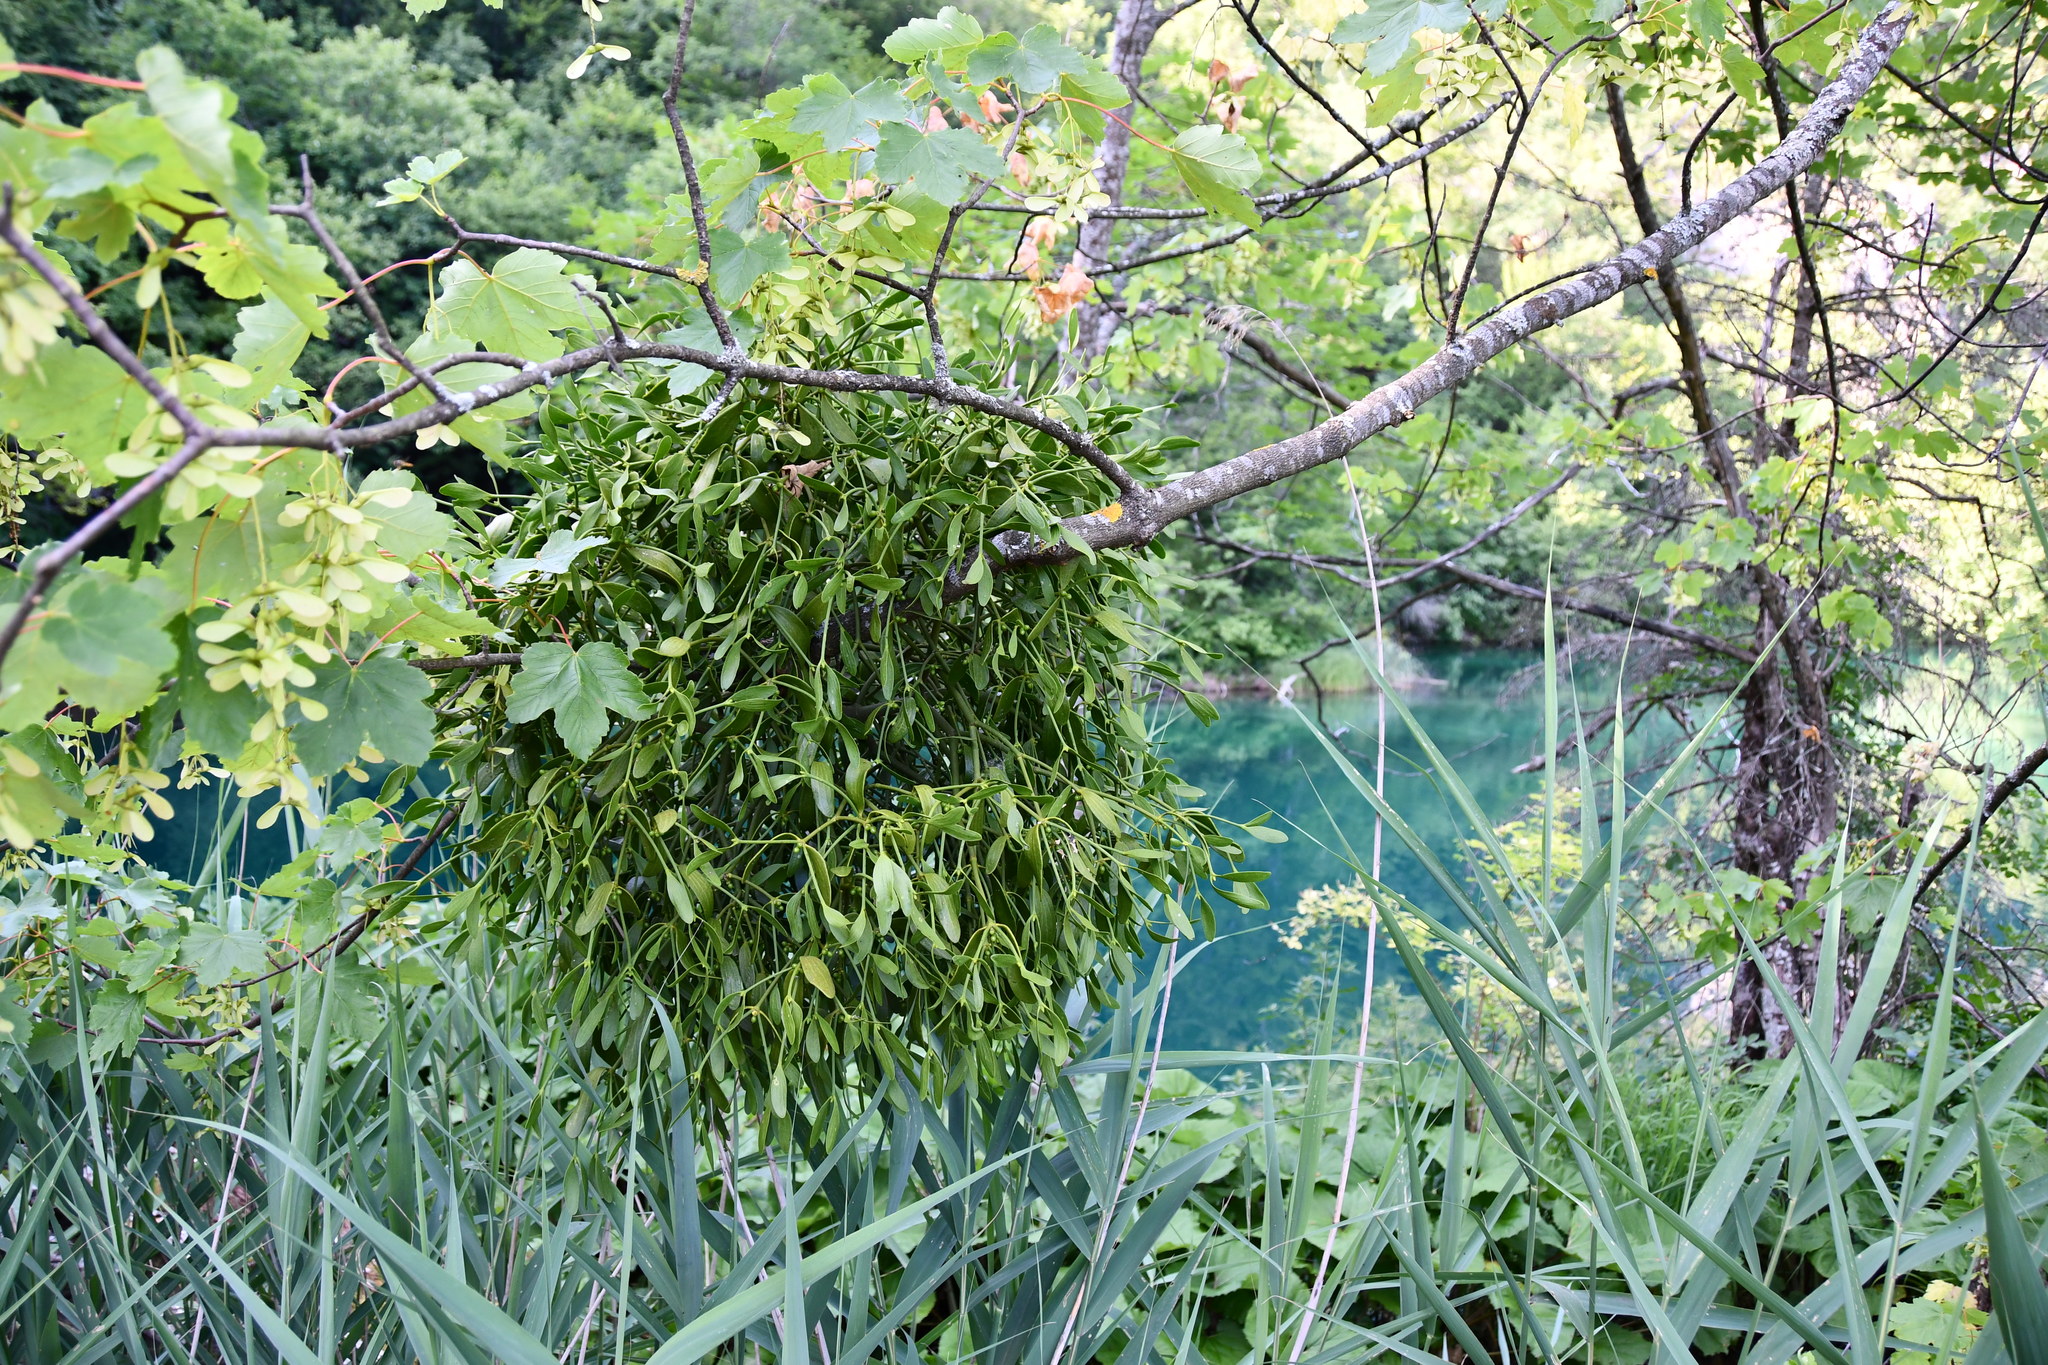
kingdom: Plantae
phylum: Tracheophyta
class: Magnoliopsida
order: Santalales
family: Viscaceae
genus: Viscum
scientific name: Viscum album
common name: Mistletoe
